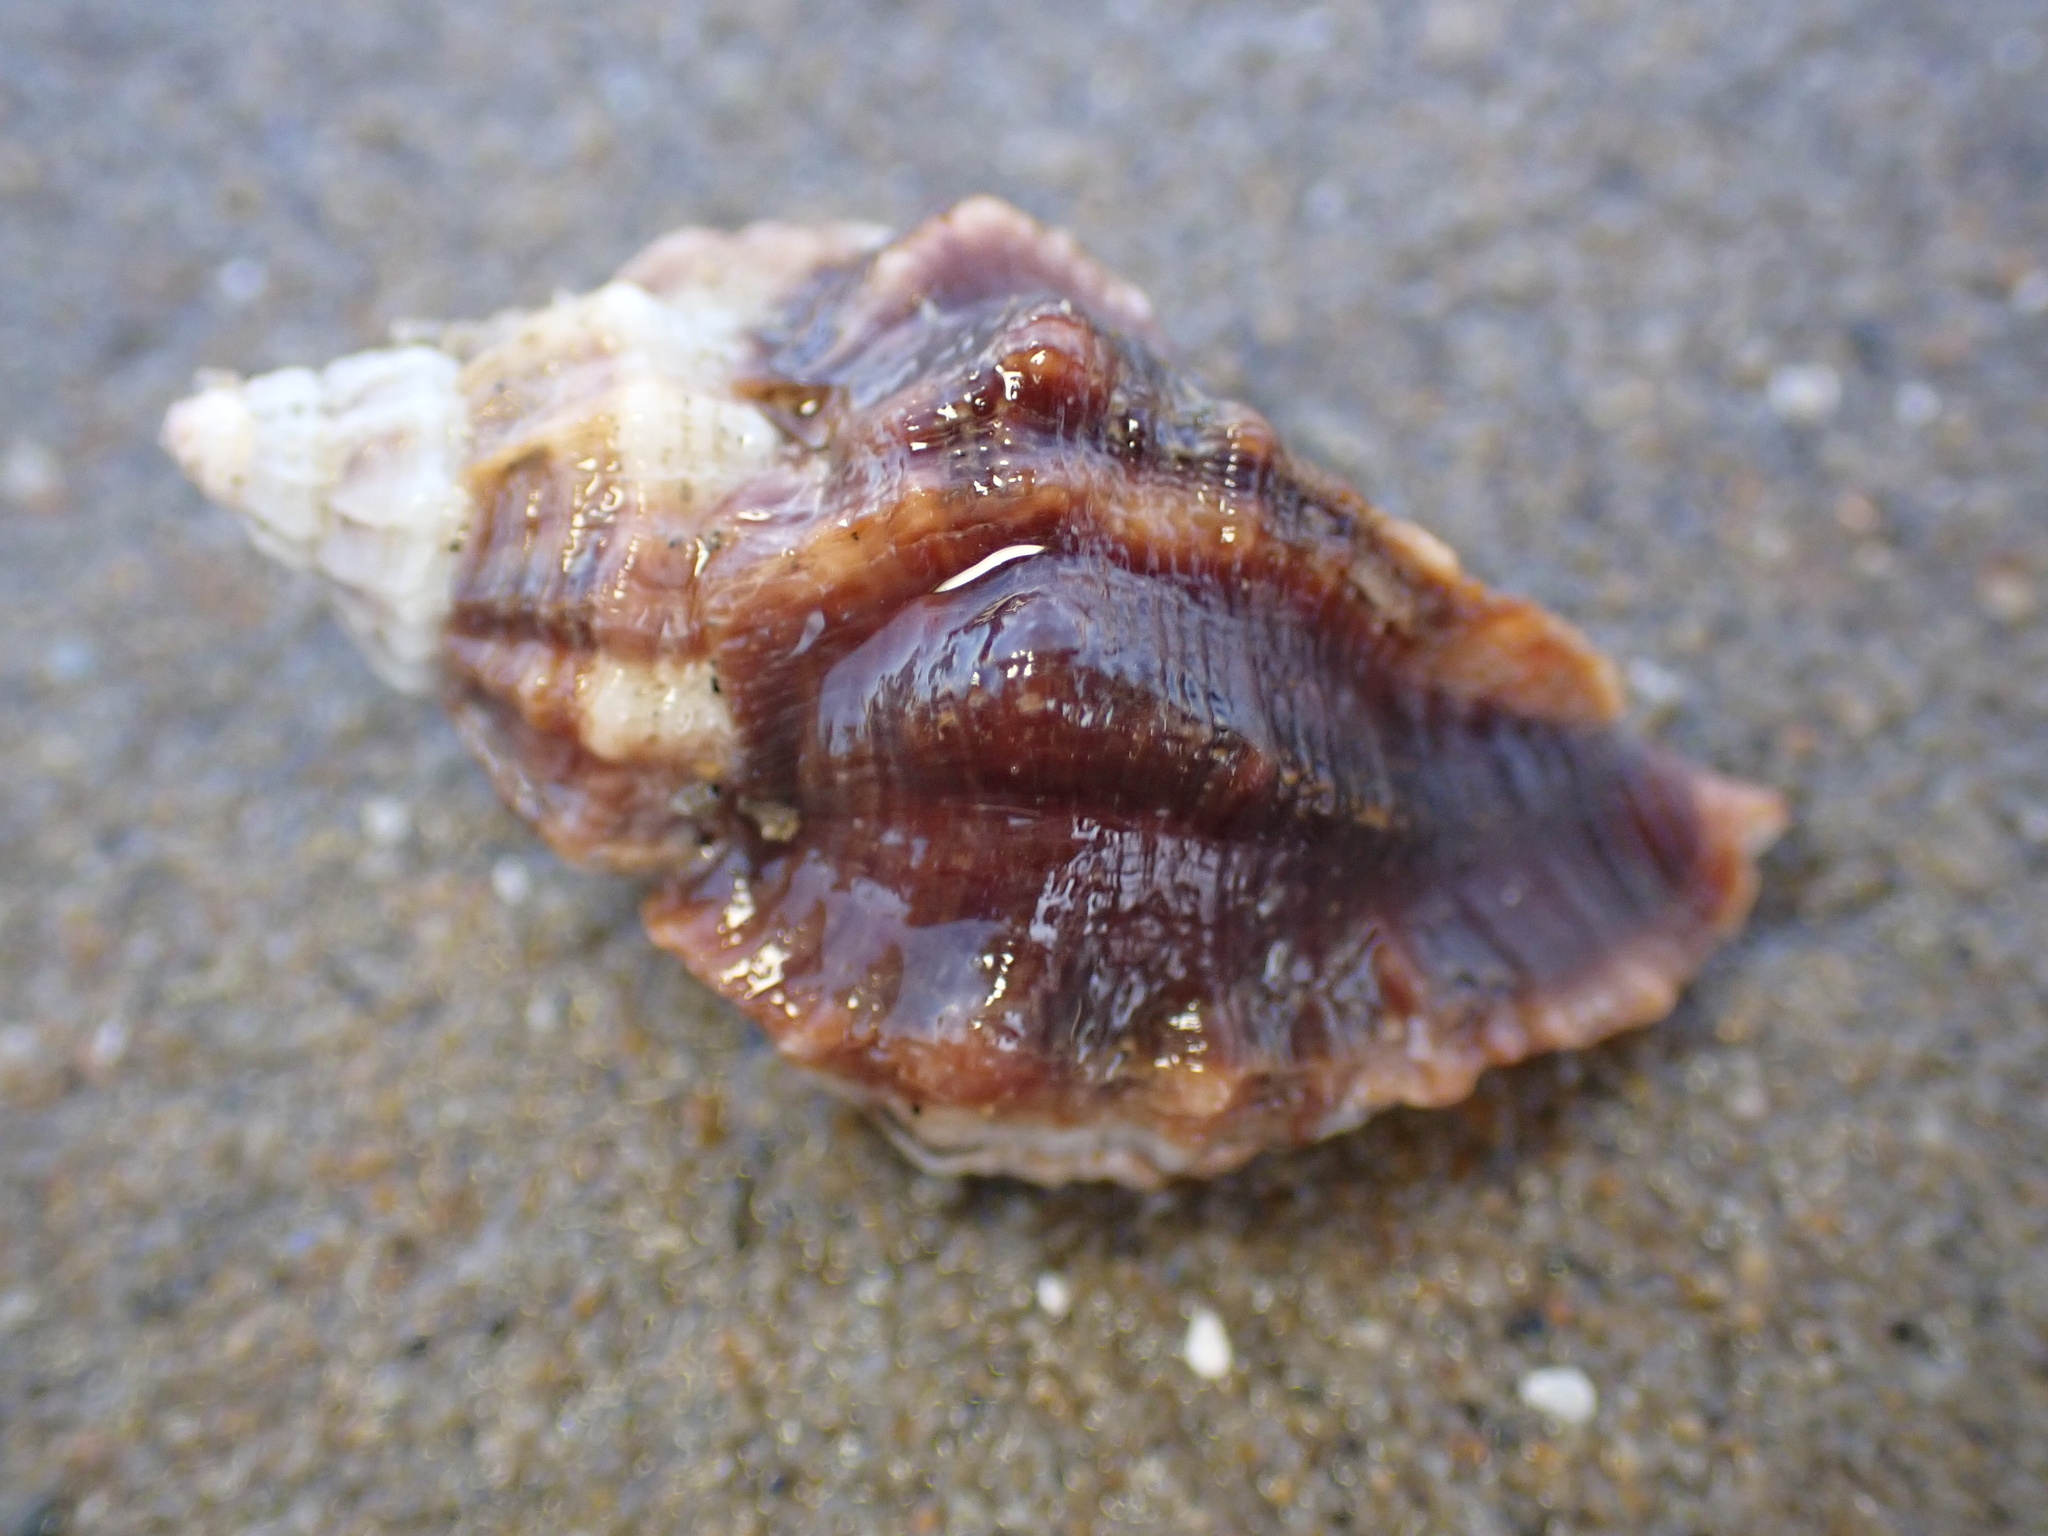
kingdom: Animalia
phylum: Mollusca
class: Gastropoda
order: Neogastropoda
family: Muricidae
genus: Ceratostoma
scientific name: Ceratostoma nuttalli
